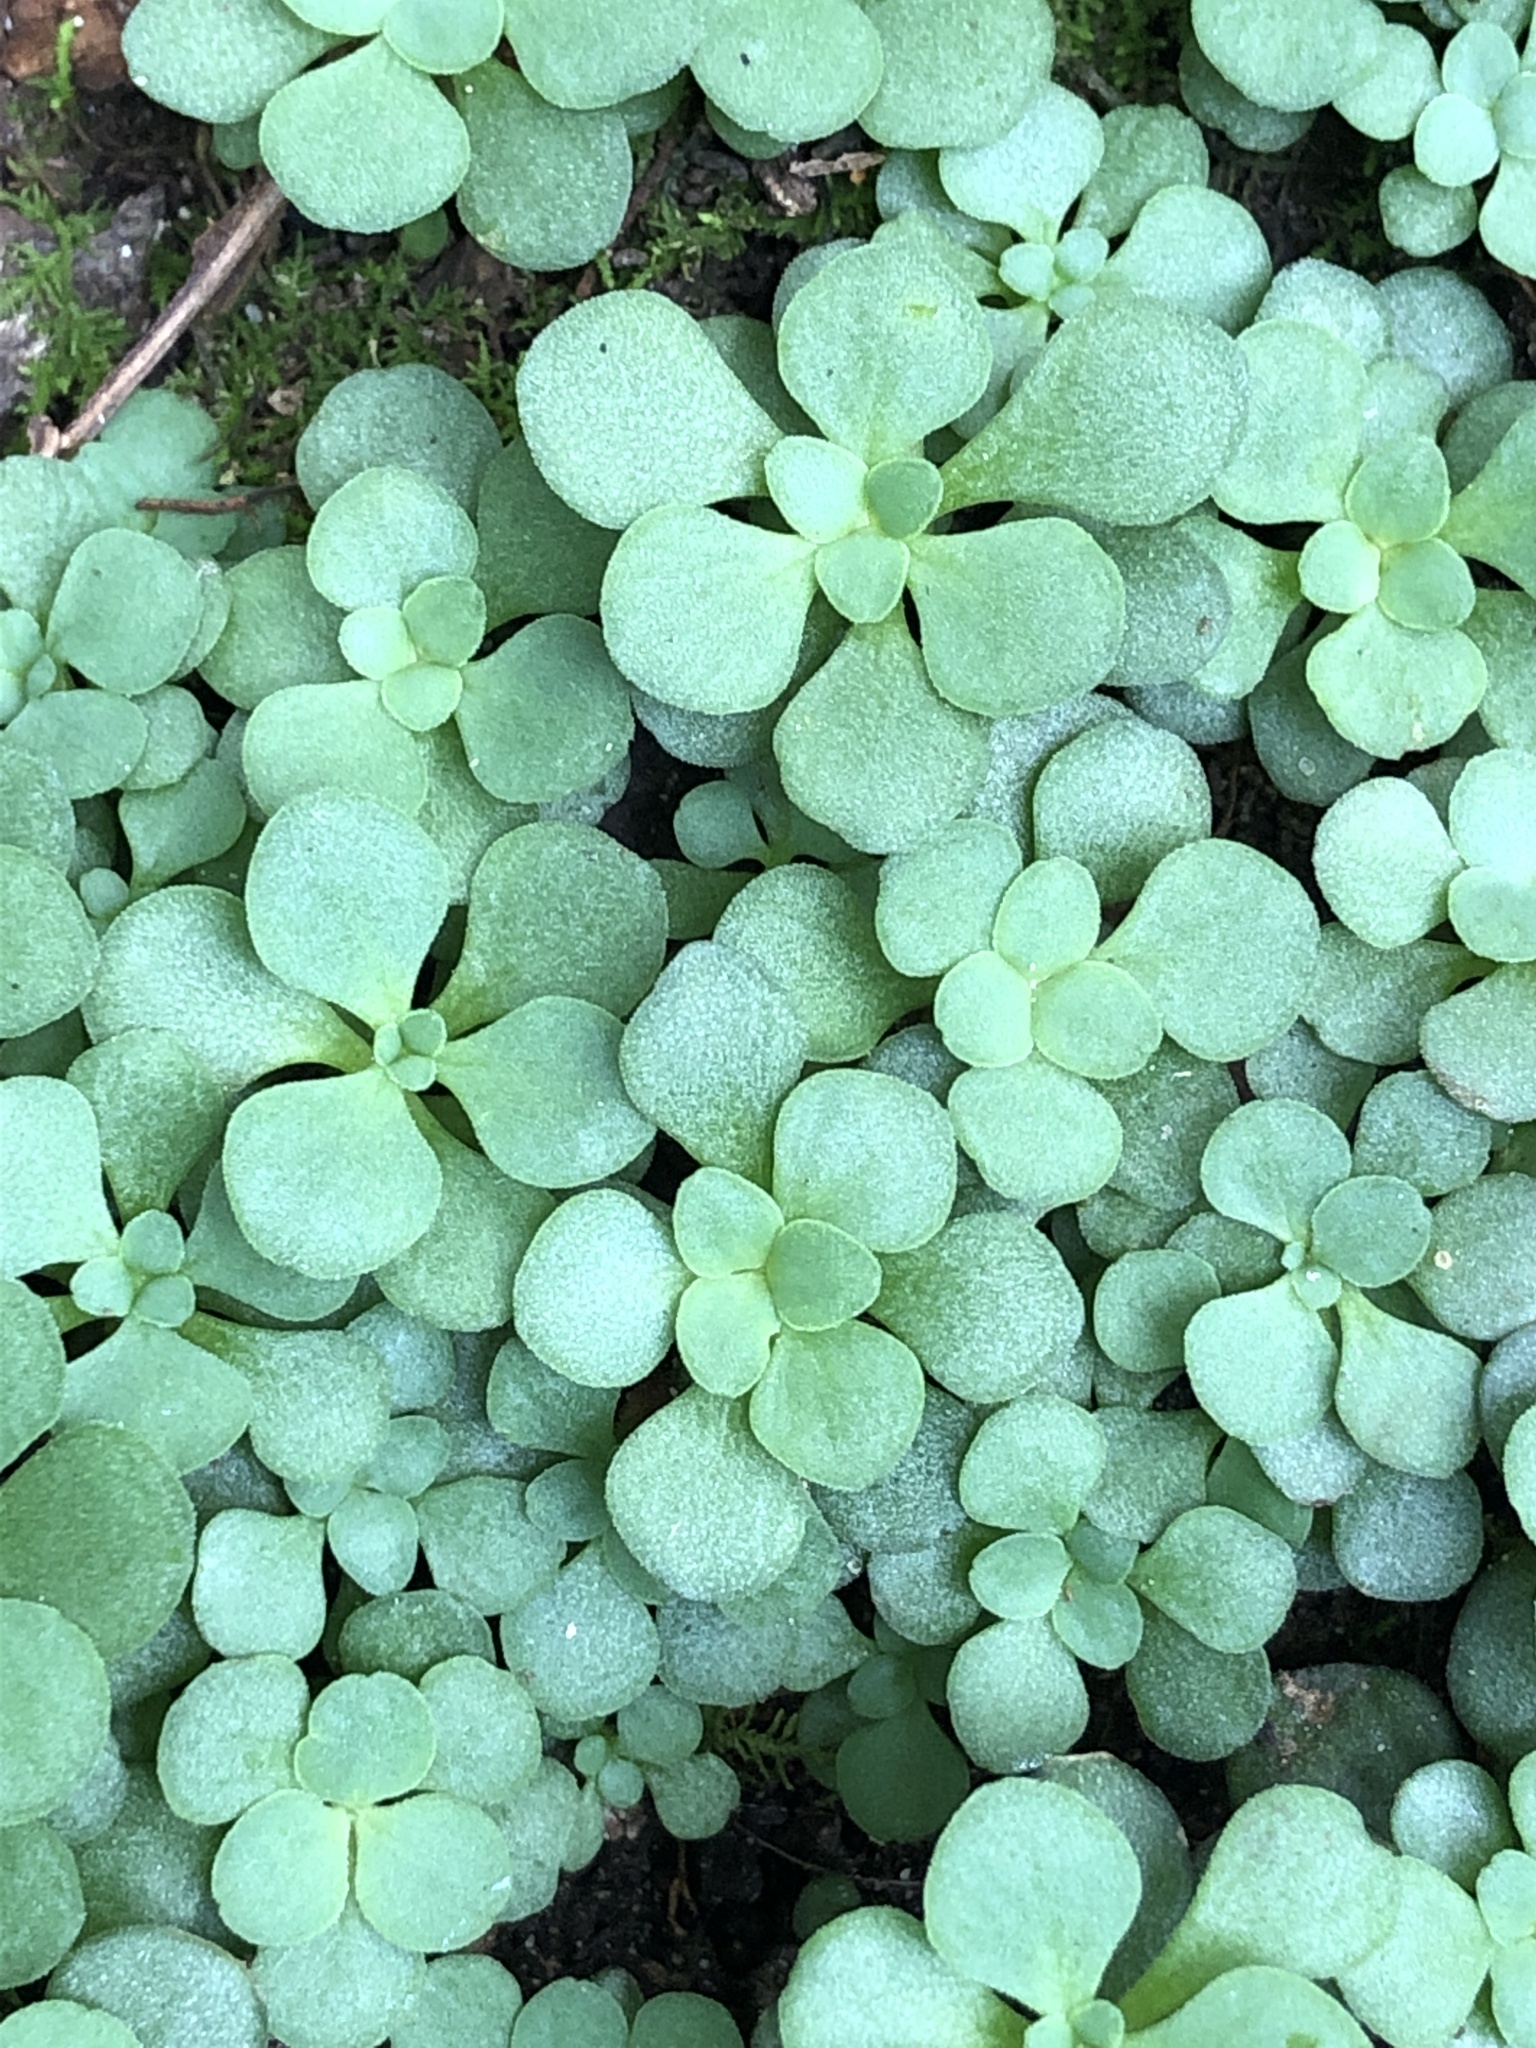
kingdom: Plantae
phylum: Tracheophyta
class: Magnoliopsida
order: Saxifragales
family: Crassulaceae
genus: Sedum
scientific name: Sedum ternatum
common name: Wild stonecrop
